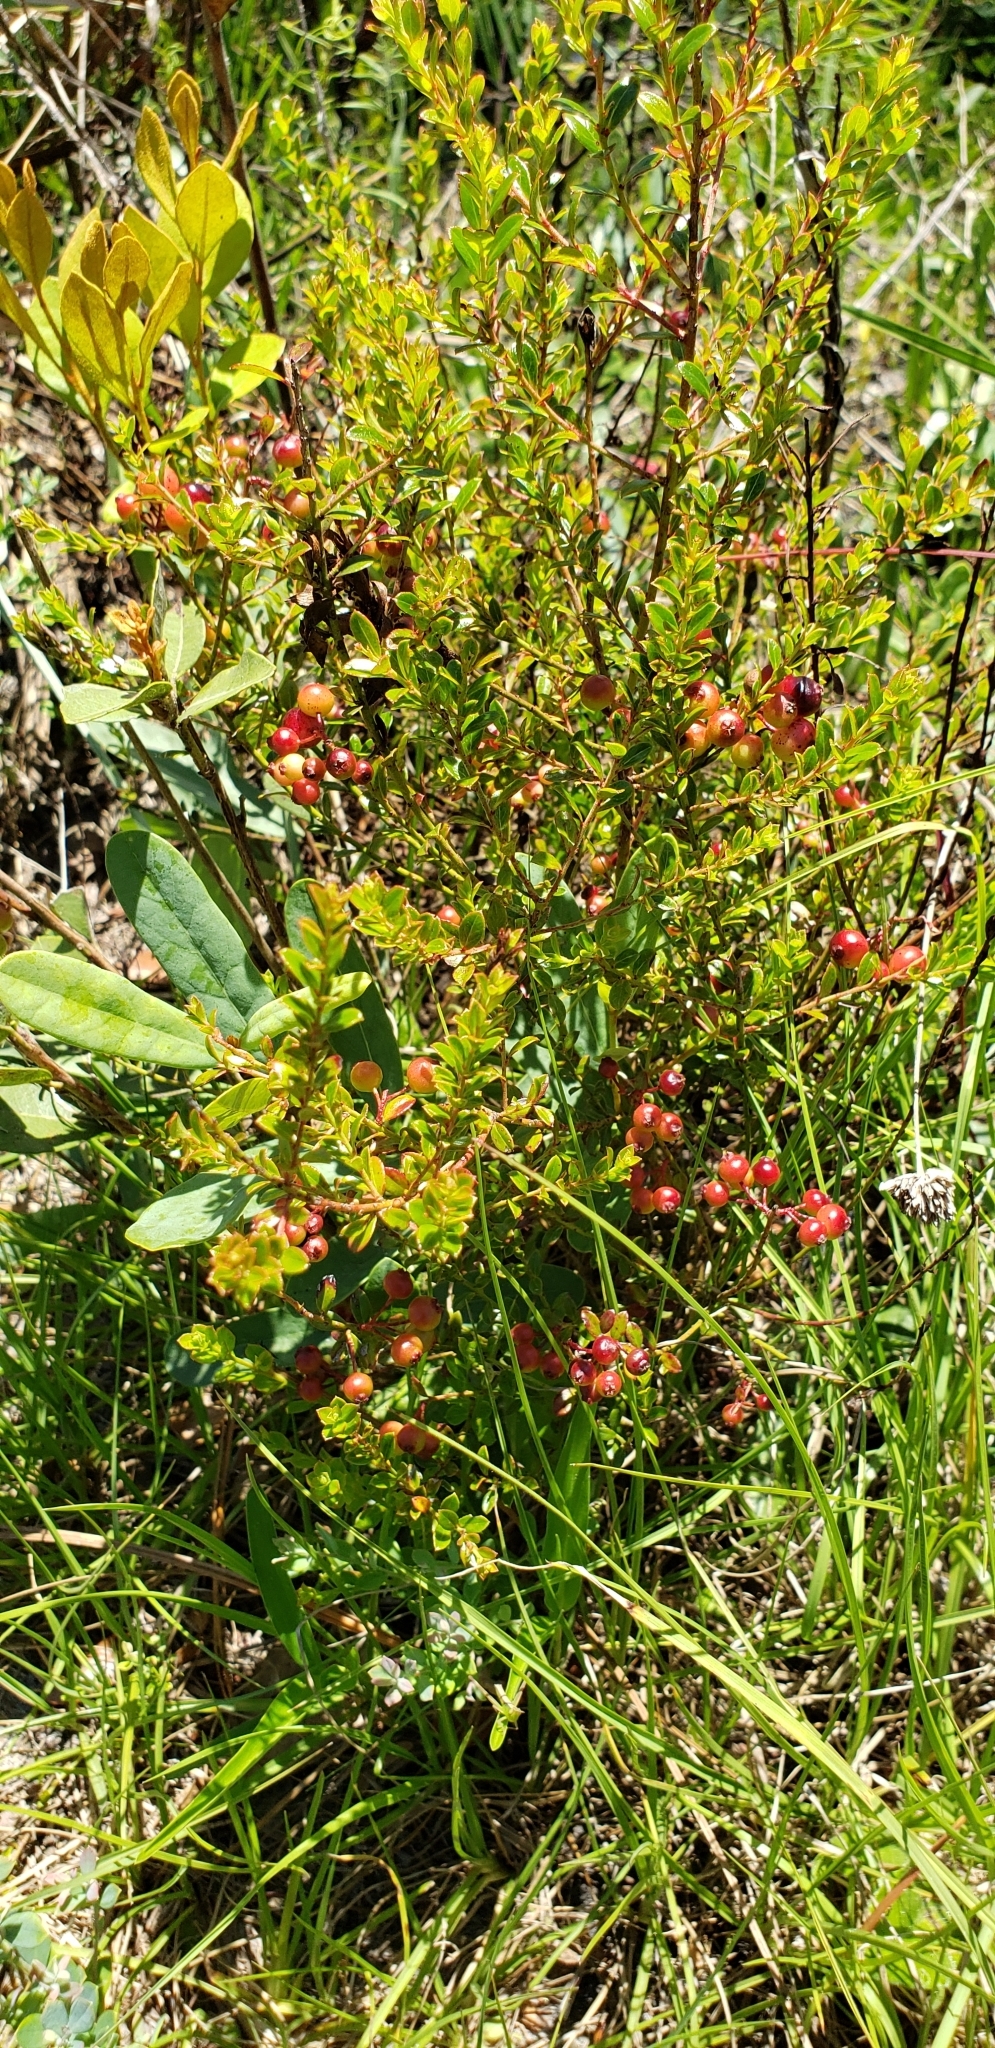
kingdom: Plantae
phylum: Tracheophyta
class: Magnoliopsida
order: Ericales
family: Ericaceae
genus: Vaccinium
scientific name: Vaccinium myrsinites
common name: Evergreen blueberry
